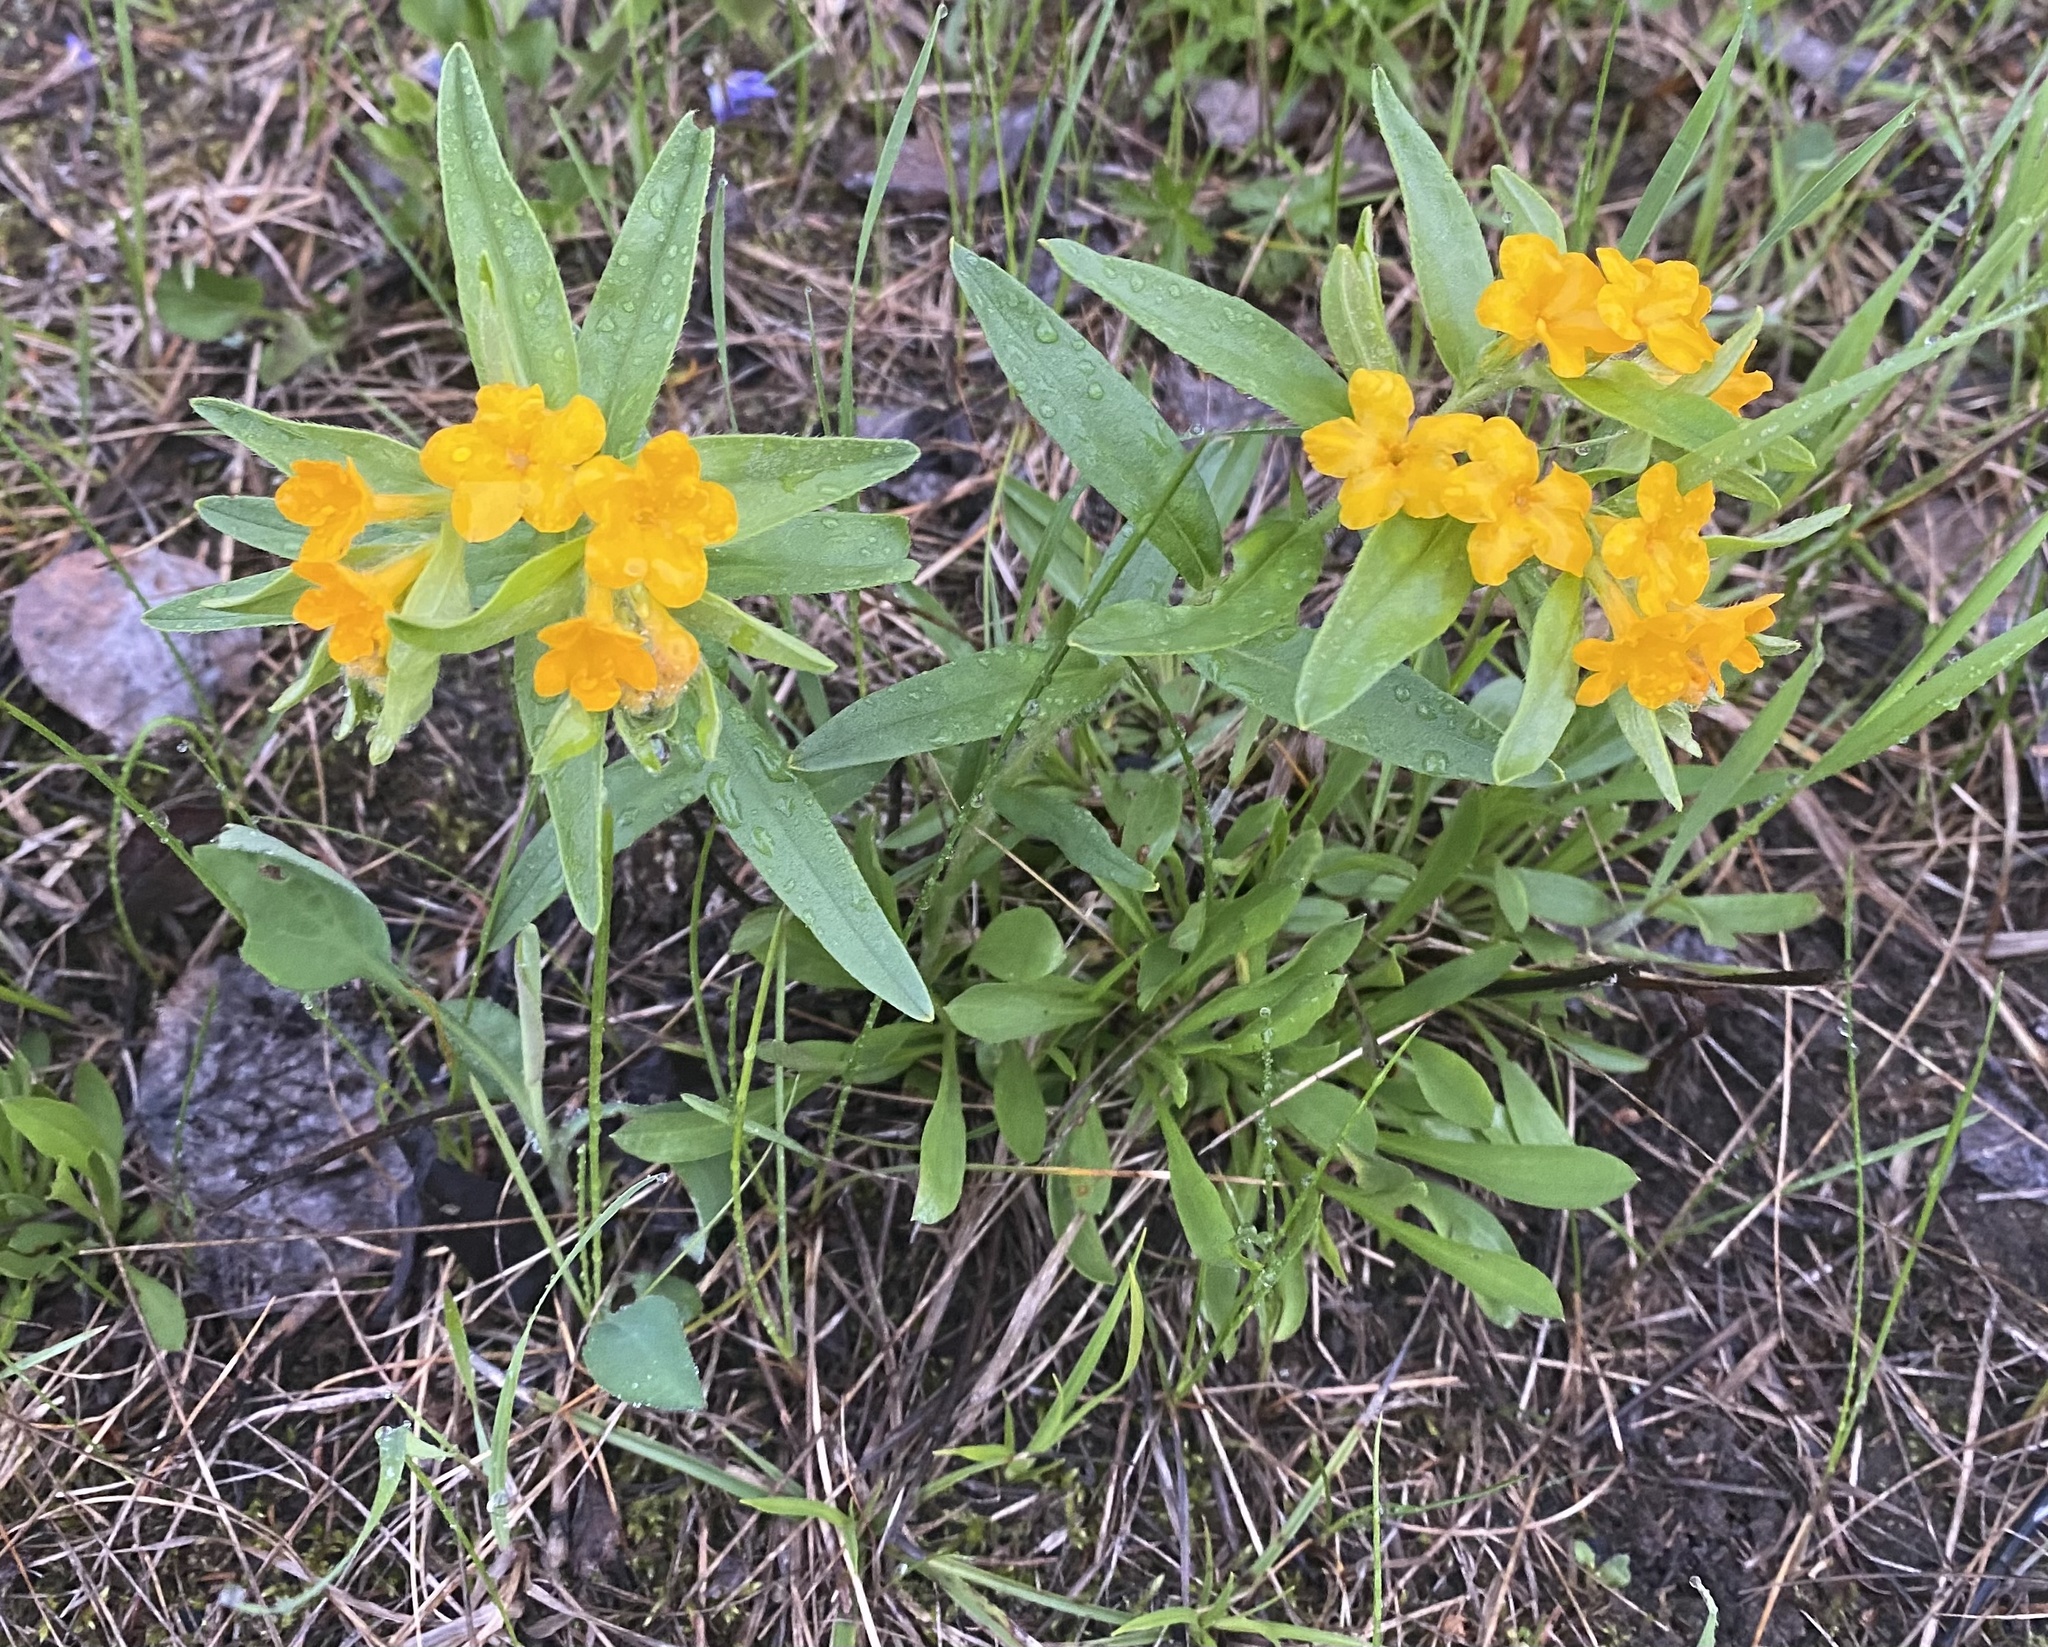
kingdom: Plantae
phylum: Tracheophyta
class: Magnoliopsida
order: Boraginales
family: Boraginaceae
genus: Lithospermum
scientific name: Lithospermum canescens
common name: Hoary puccoon
